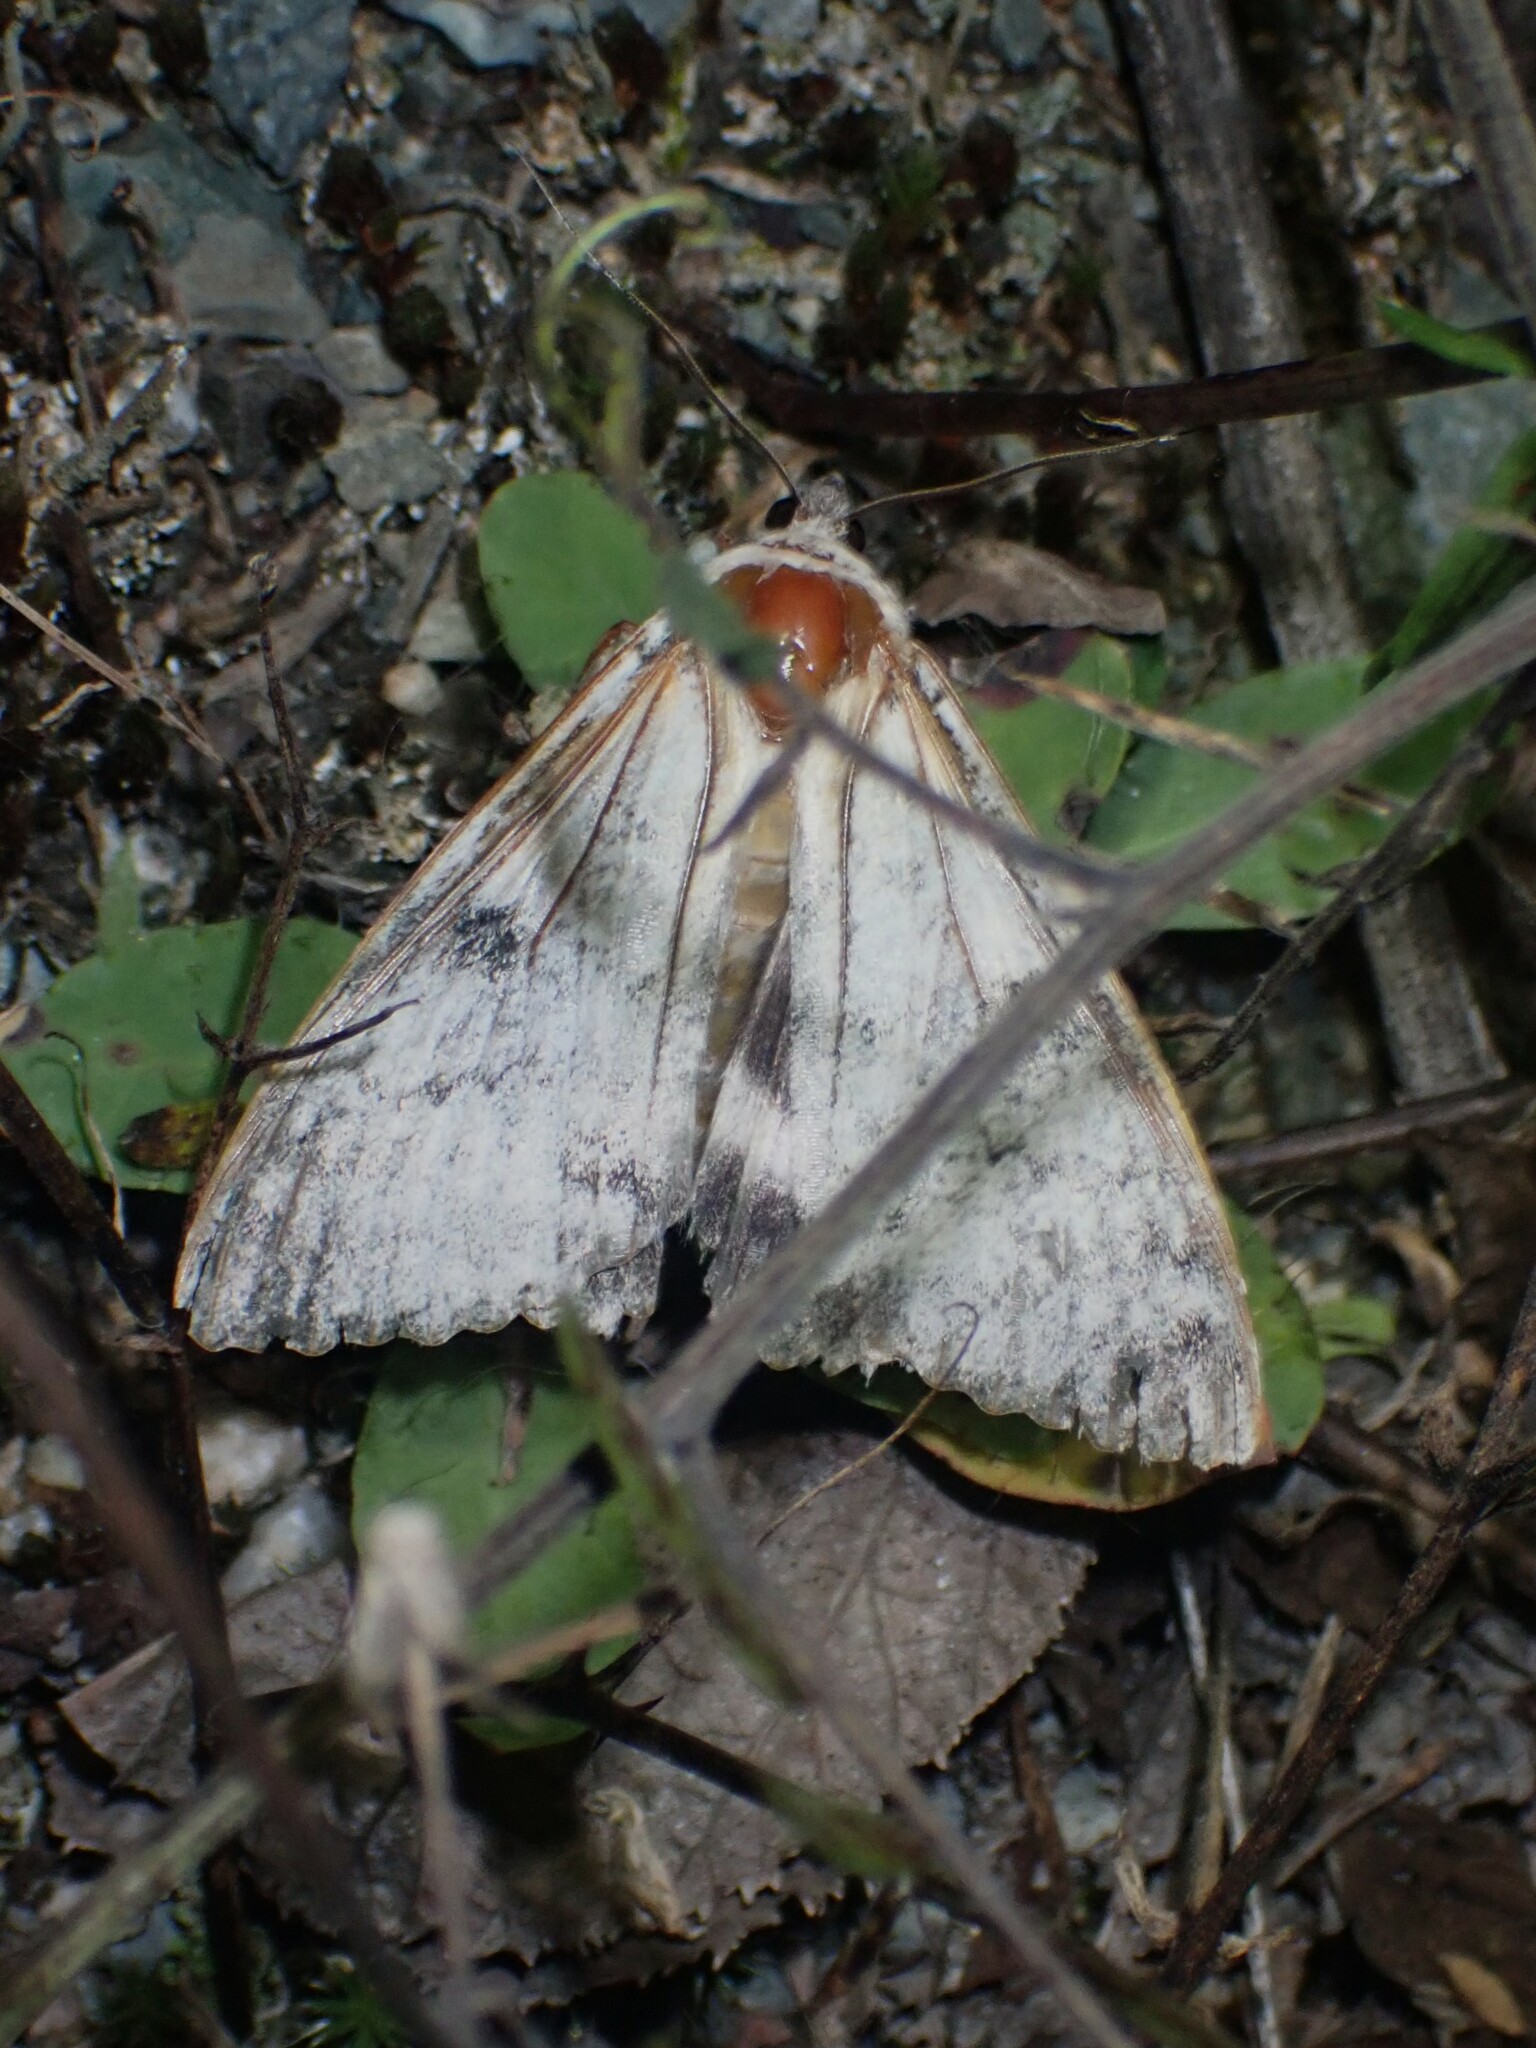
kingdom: Animalia
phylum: Arthropoda
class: Insecta
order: Lepidoptera
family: Erebidae
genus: Catocala
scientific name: Catocala relicta
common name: White underwing
